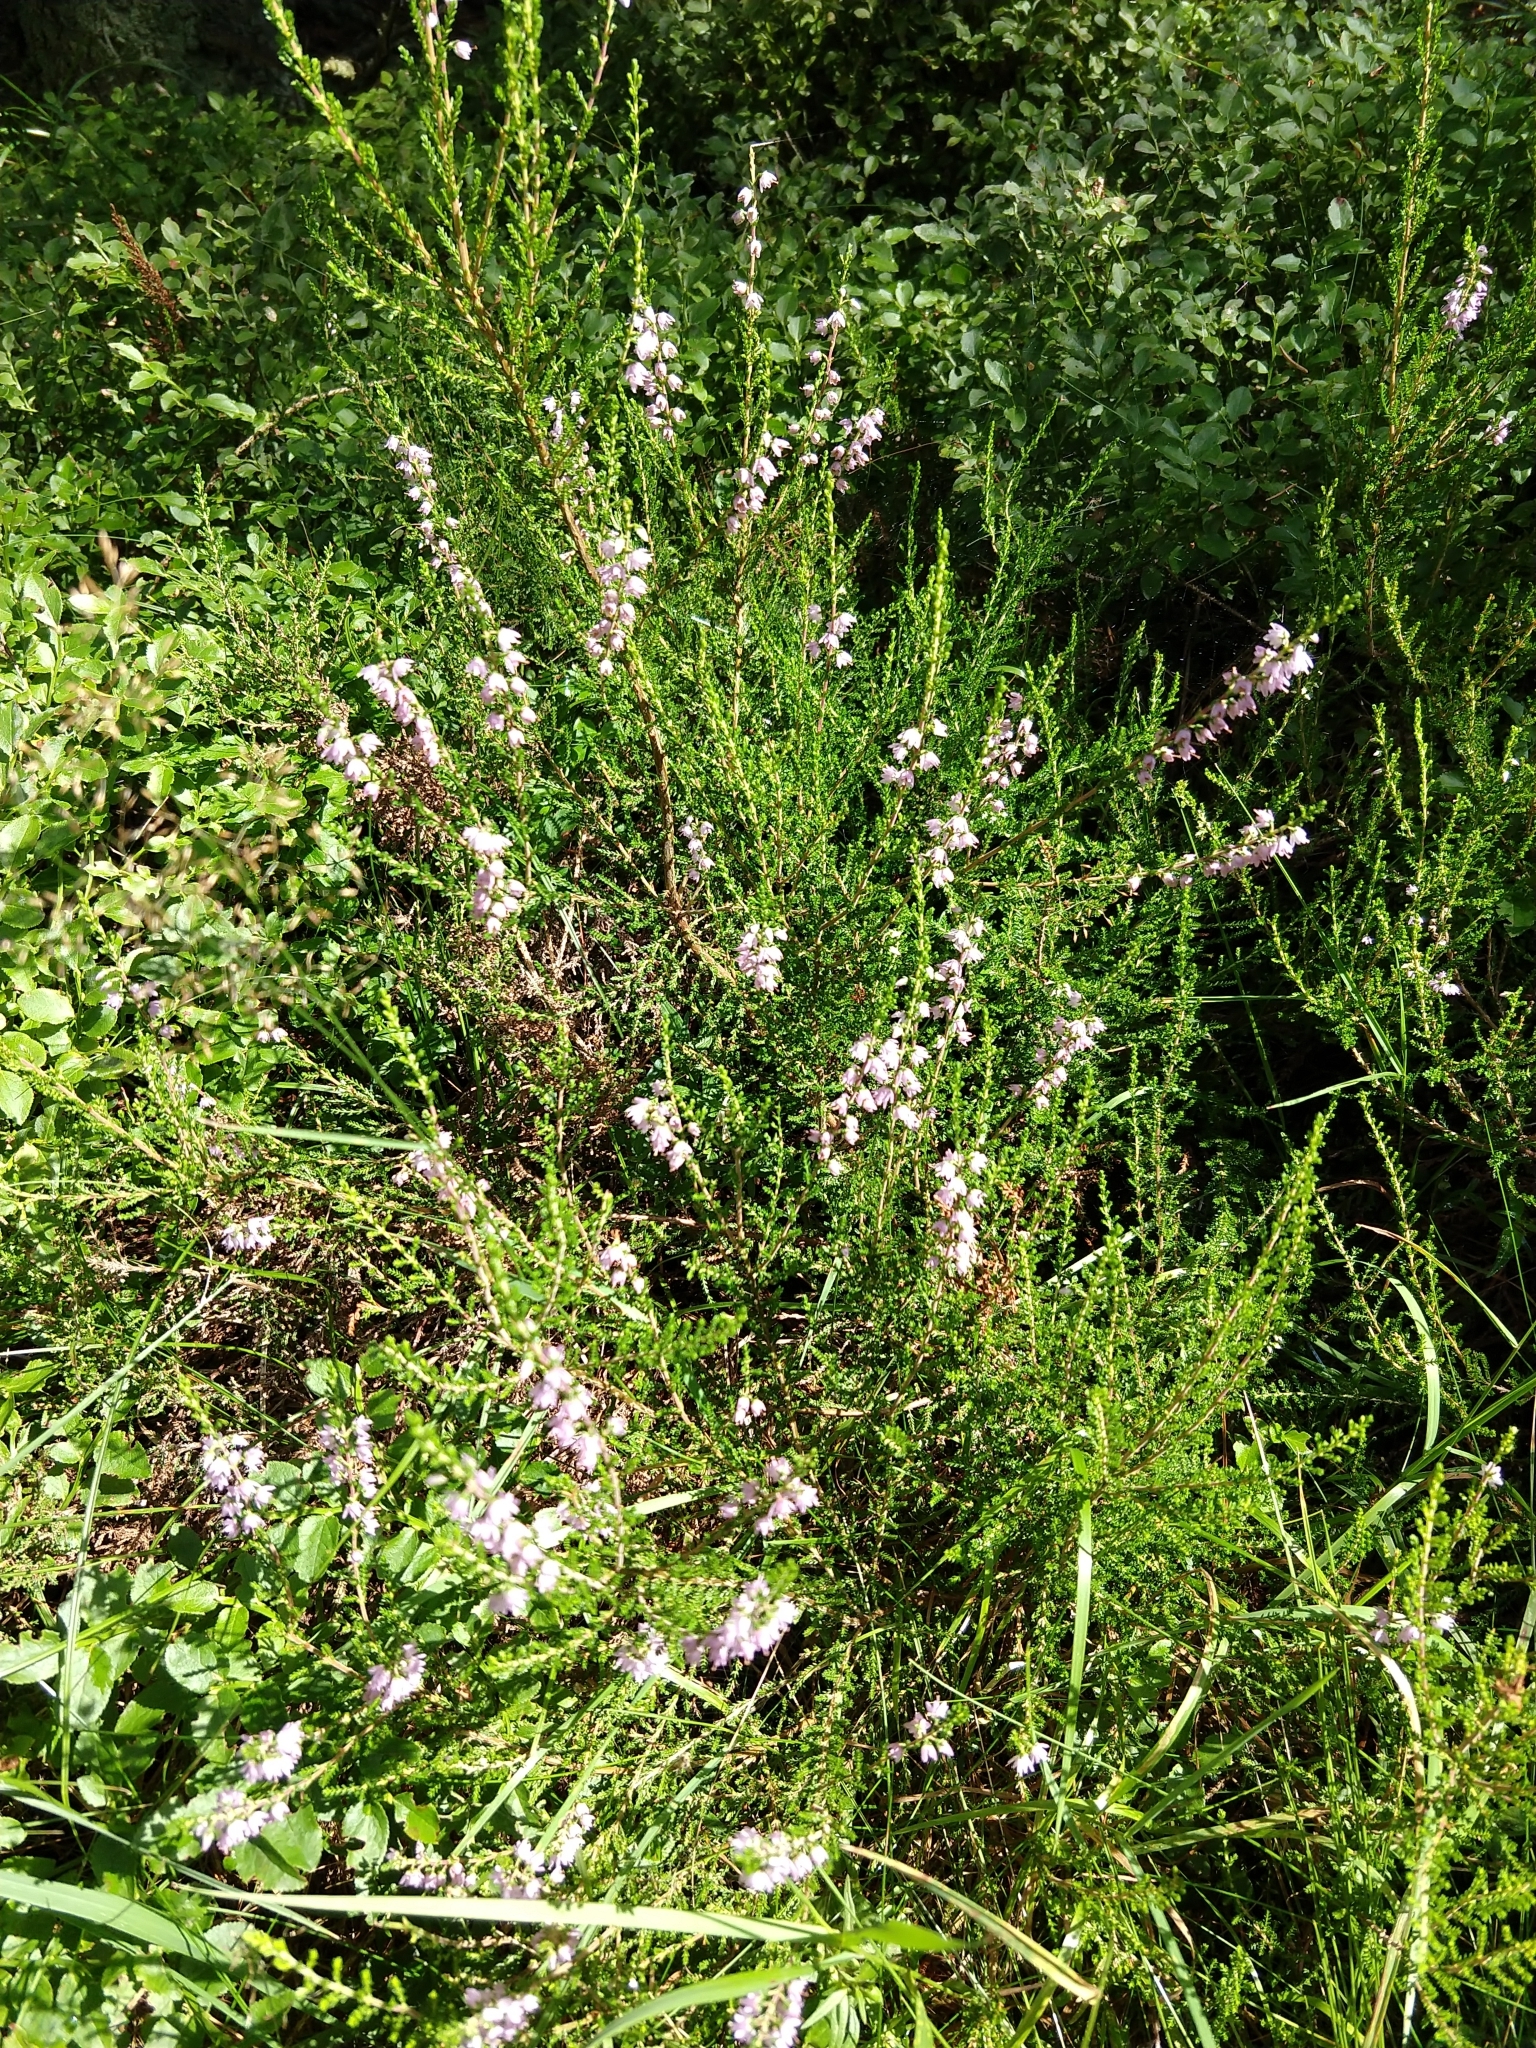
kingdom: Plantae
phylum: Tracheophyta
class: Magnoliopsida
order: Ericales
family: Ericaceae
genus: Calluna
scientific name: Calluna vulgaris
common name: Heather
